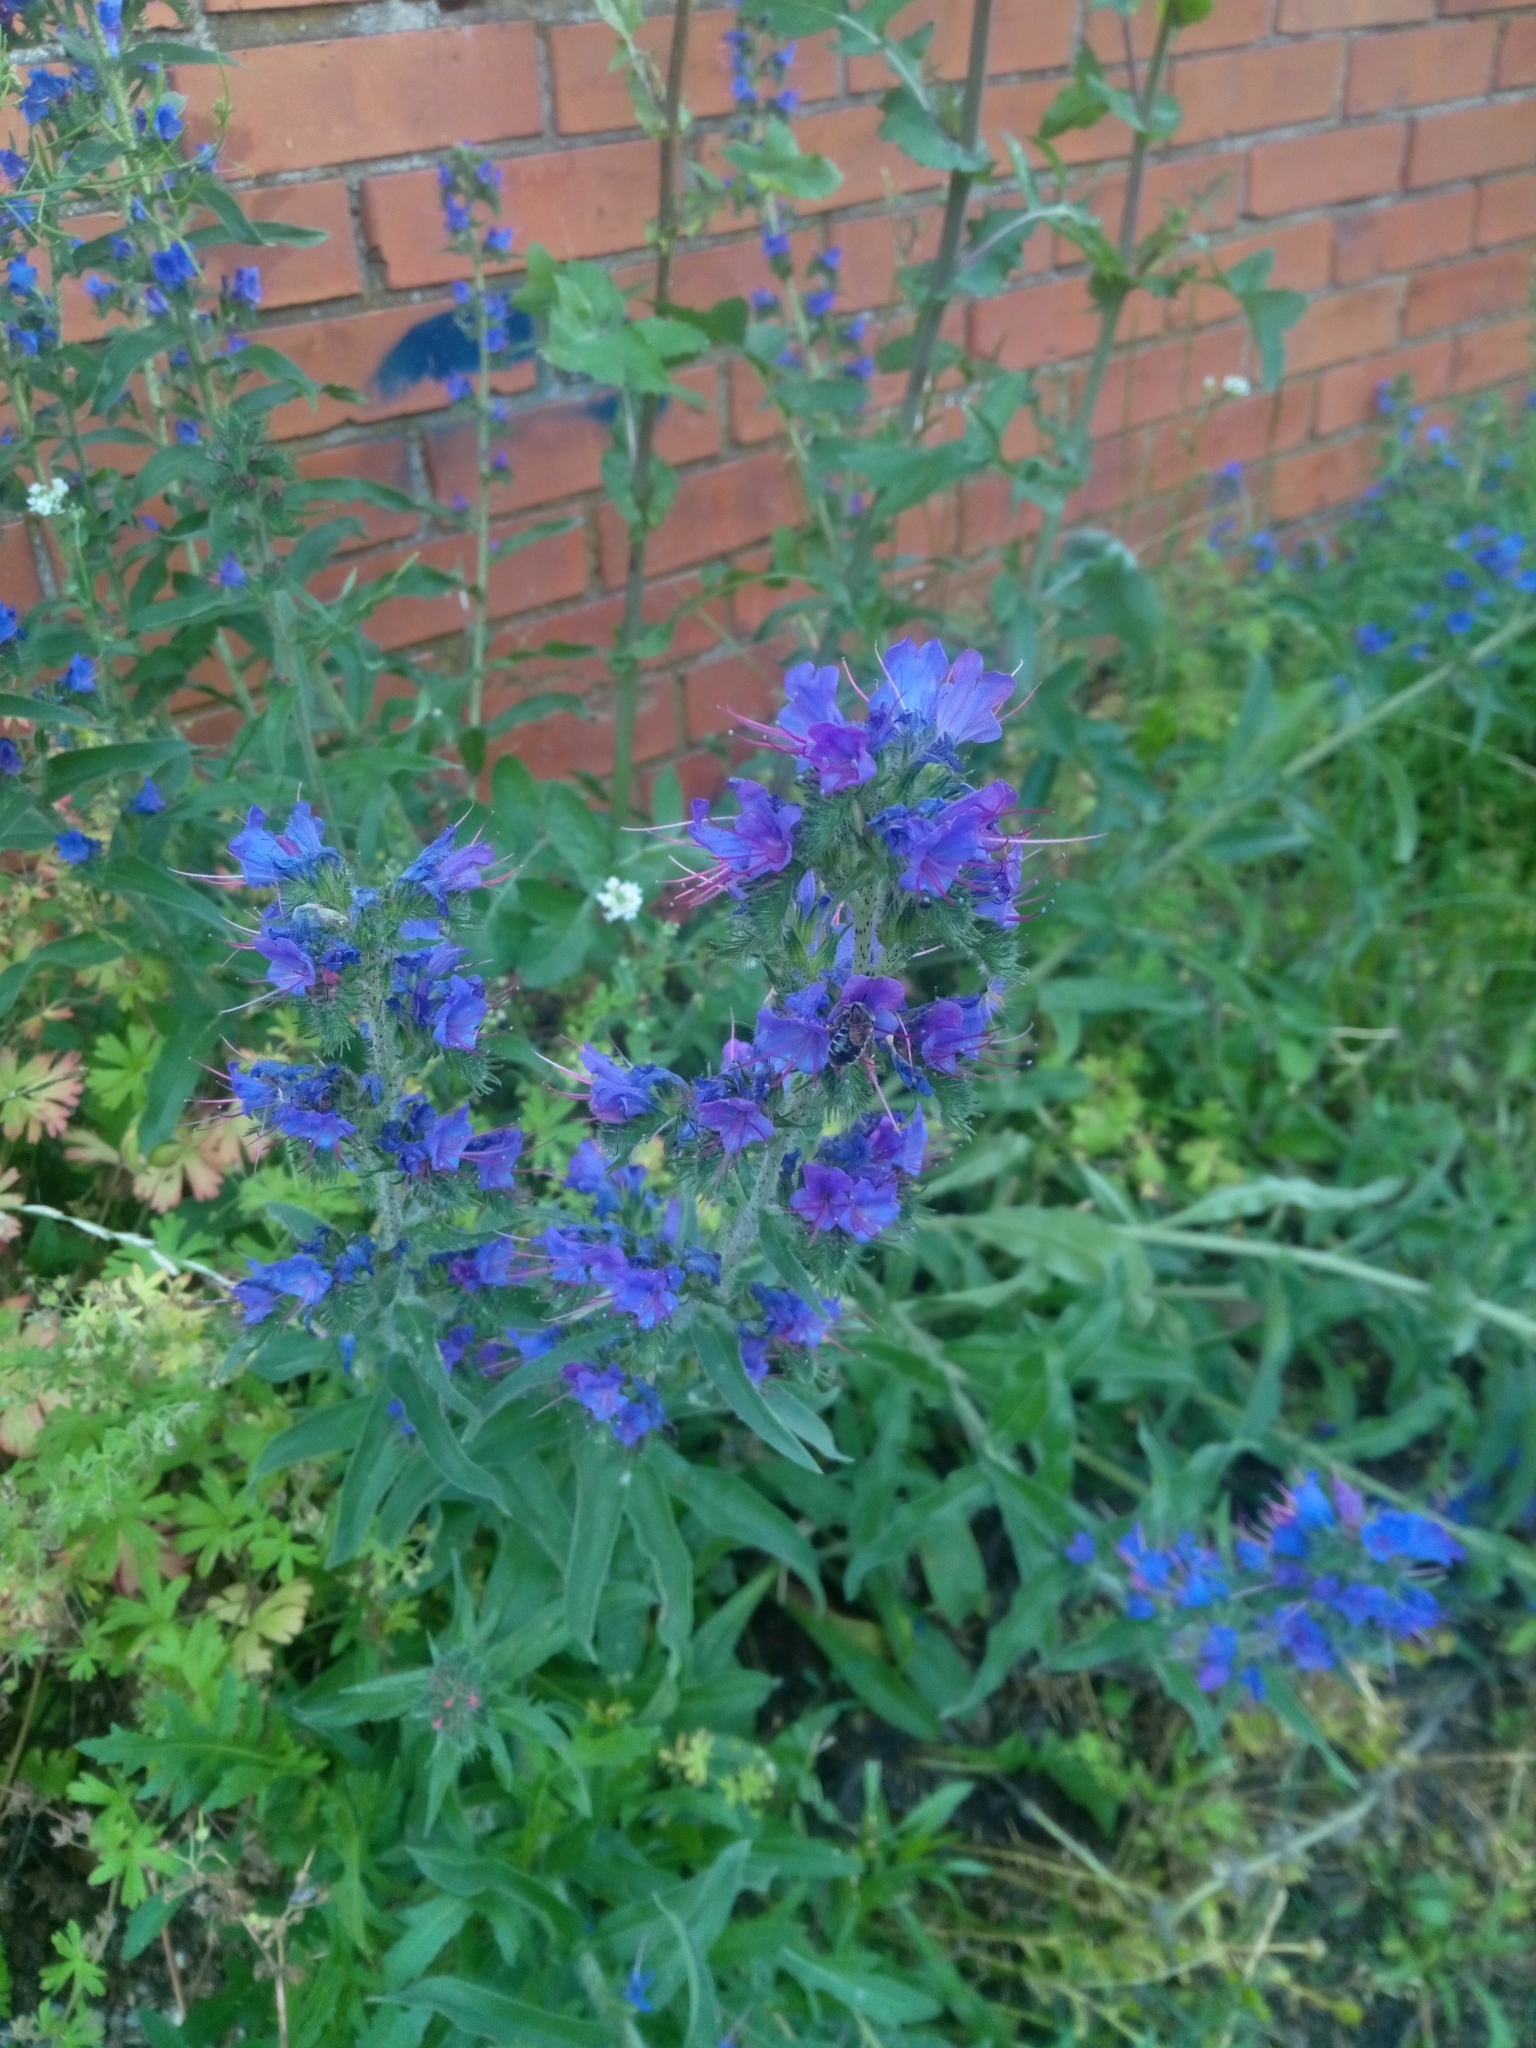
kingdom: Plantae
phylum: Tracheophyta
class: Magnoliopsida
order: Boraginales
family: Boraginaceae
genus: Echium
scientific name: Echium vulgare
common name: Common viper's bugloss
